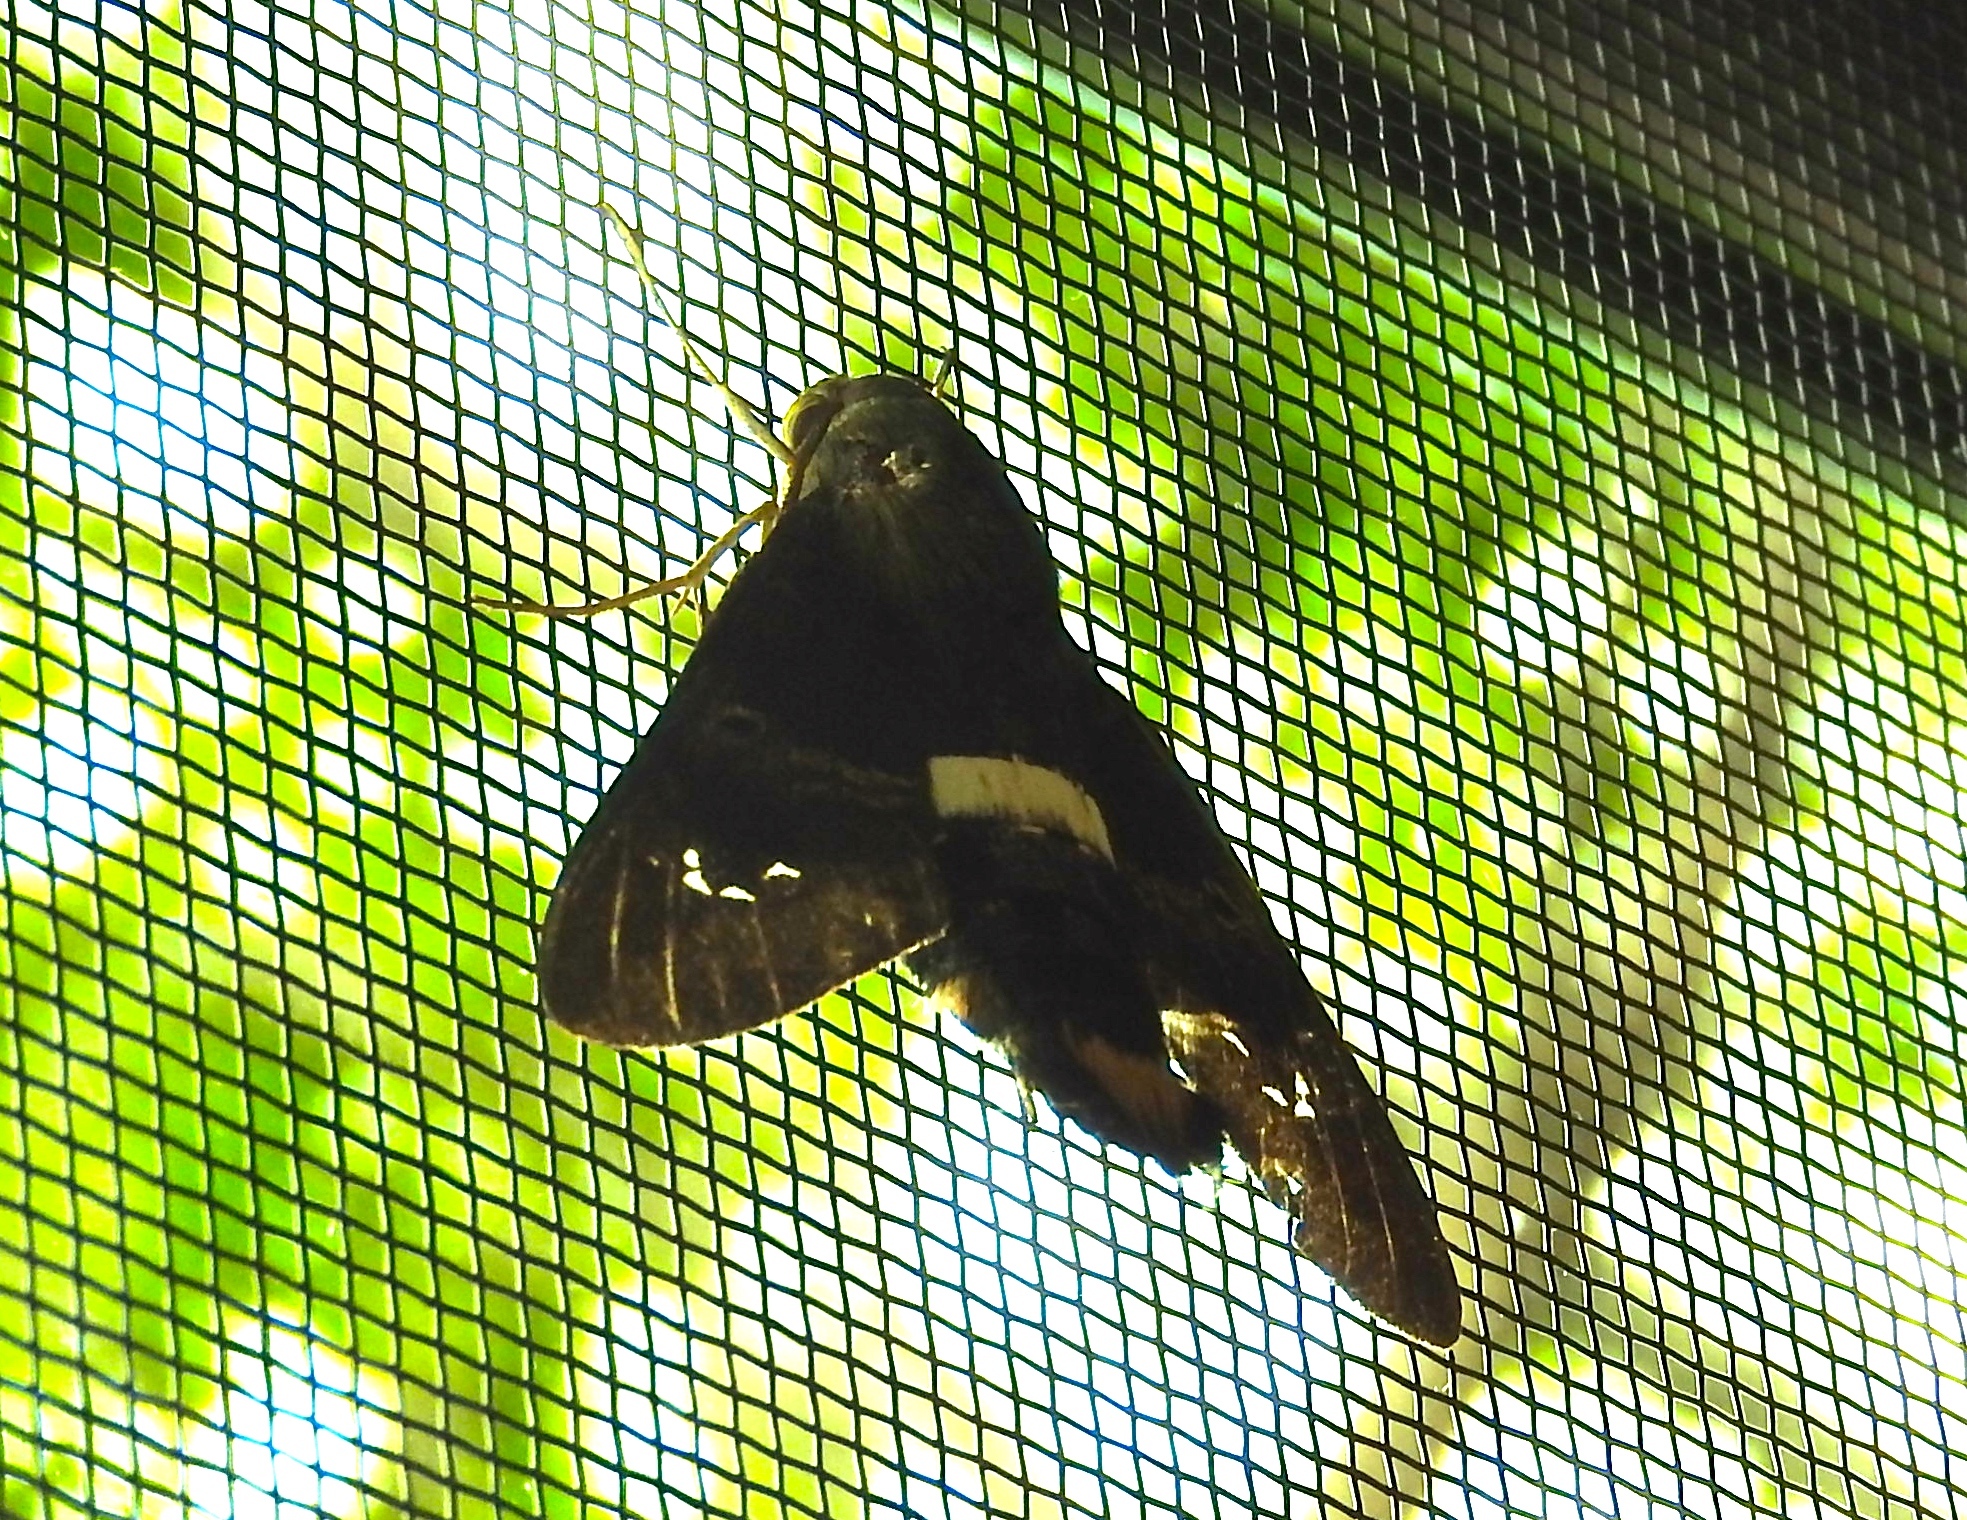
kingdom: Animalia
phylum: Arthropoda
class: Insecta
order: Lepidoptera
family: Sphingidae
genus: Aellopos
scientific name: Aellopos clavipes
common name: Clavipes sphinx
